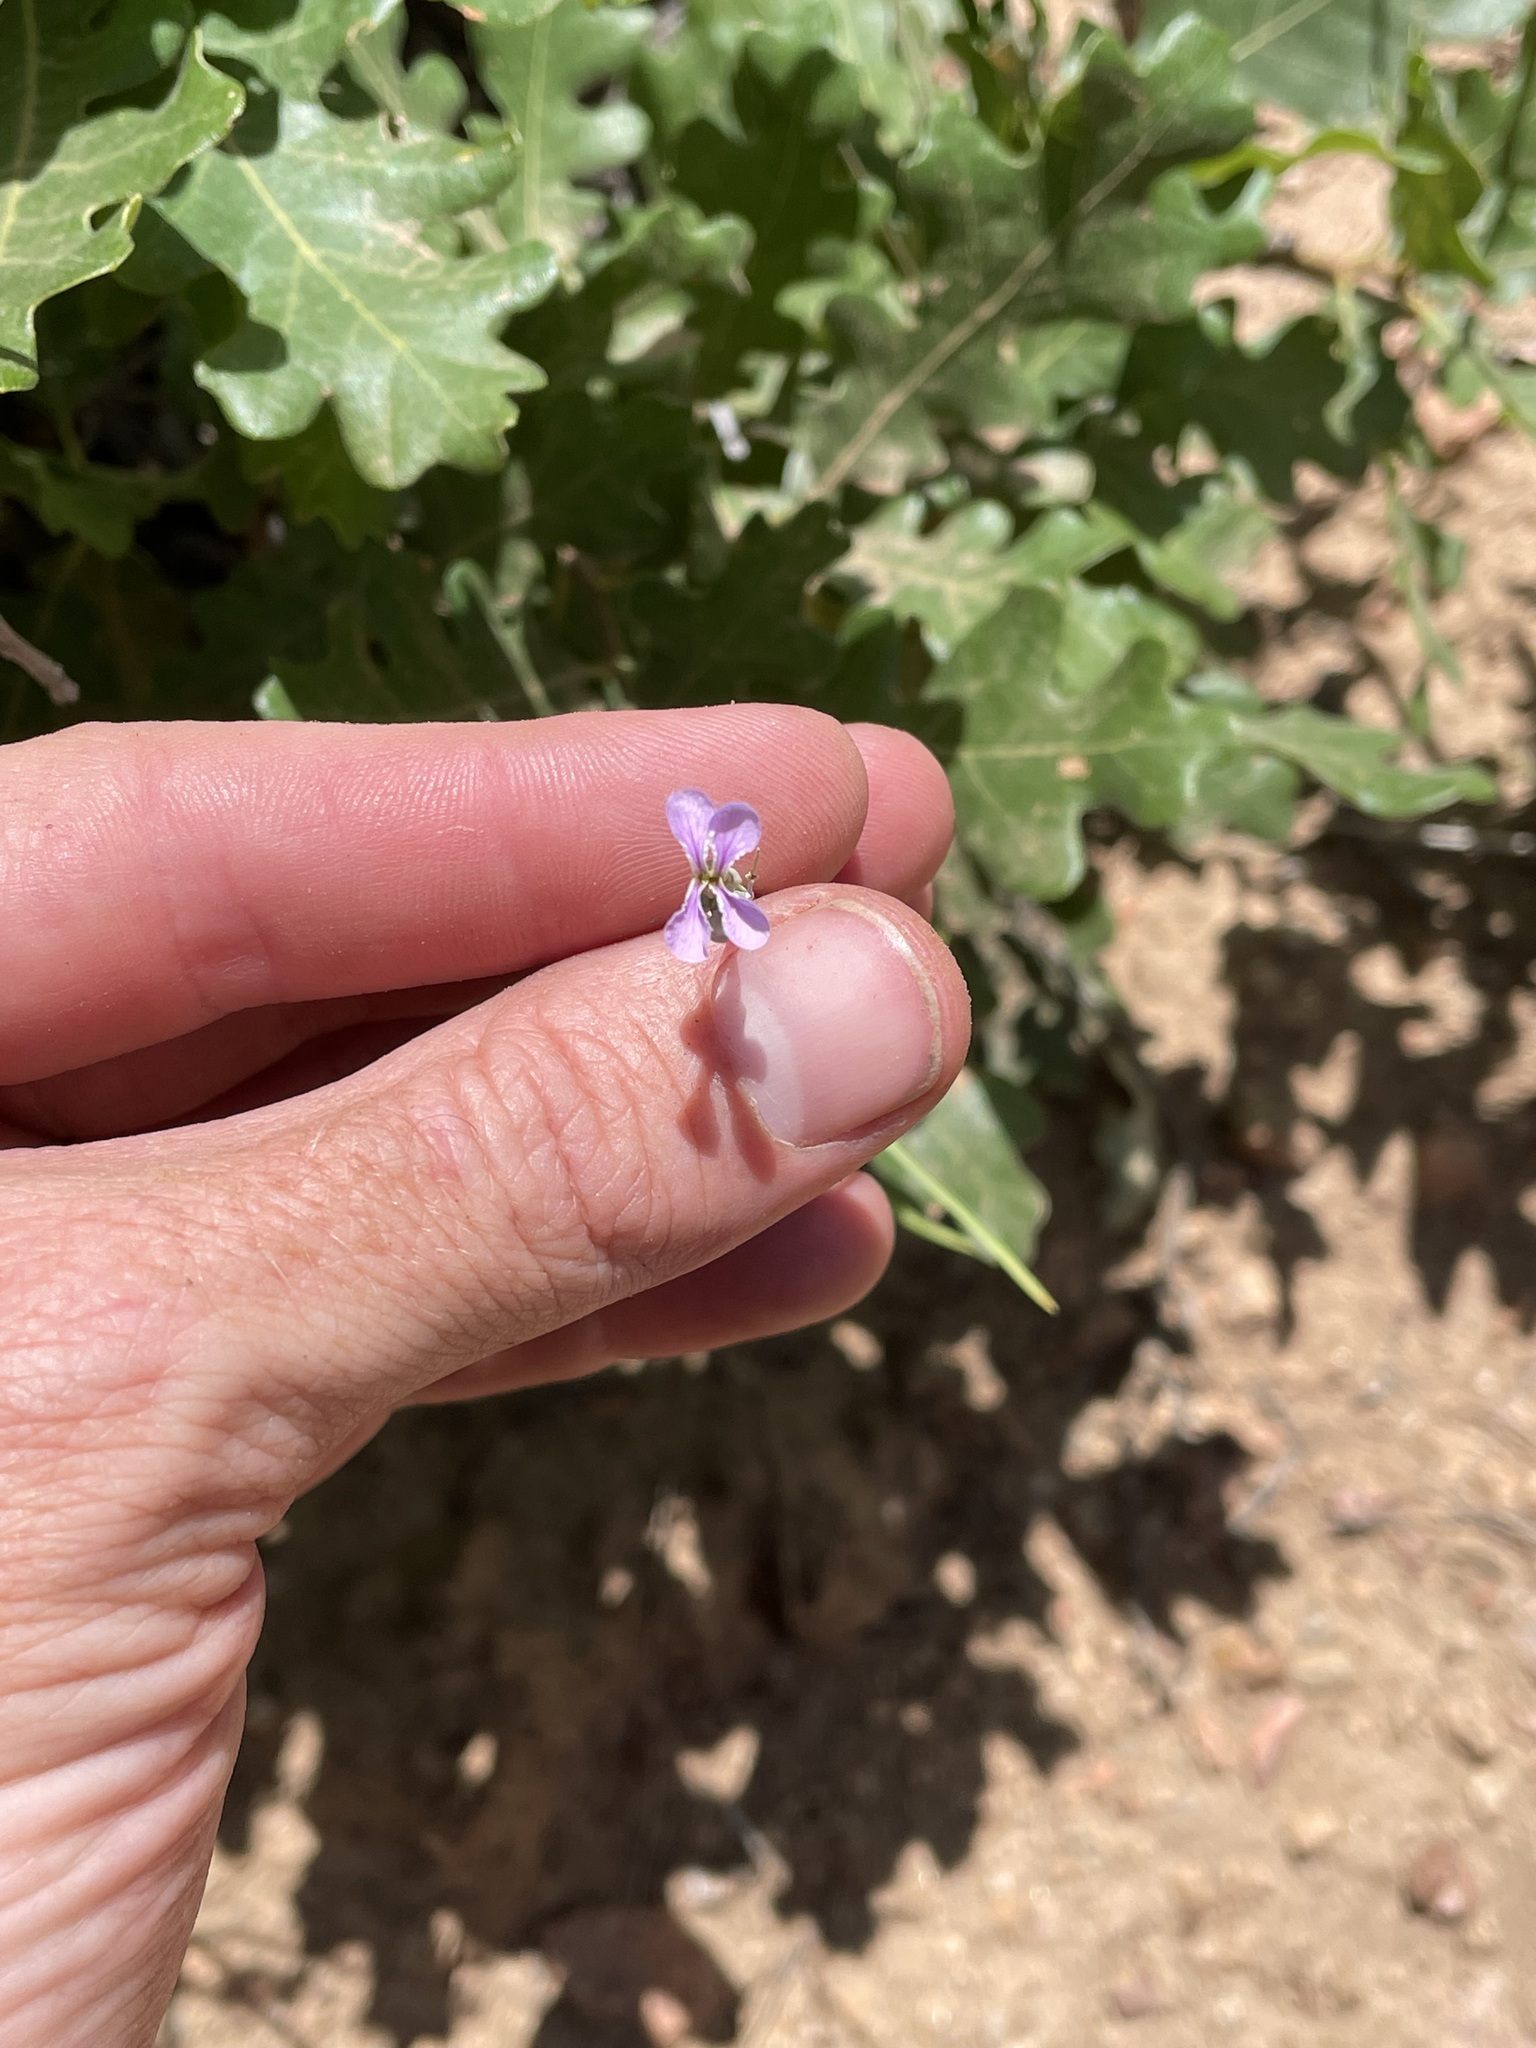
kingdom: Plantae
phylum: Tracheophyta
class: Magnoliopsida
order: Brassicales
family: Brassicaceae
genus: Hesperidanthus
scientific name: Hesperidanthus linearifolius
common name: Slim-leaf plains mustard
